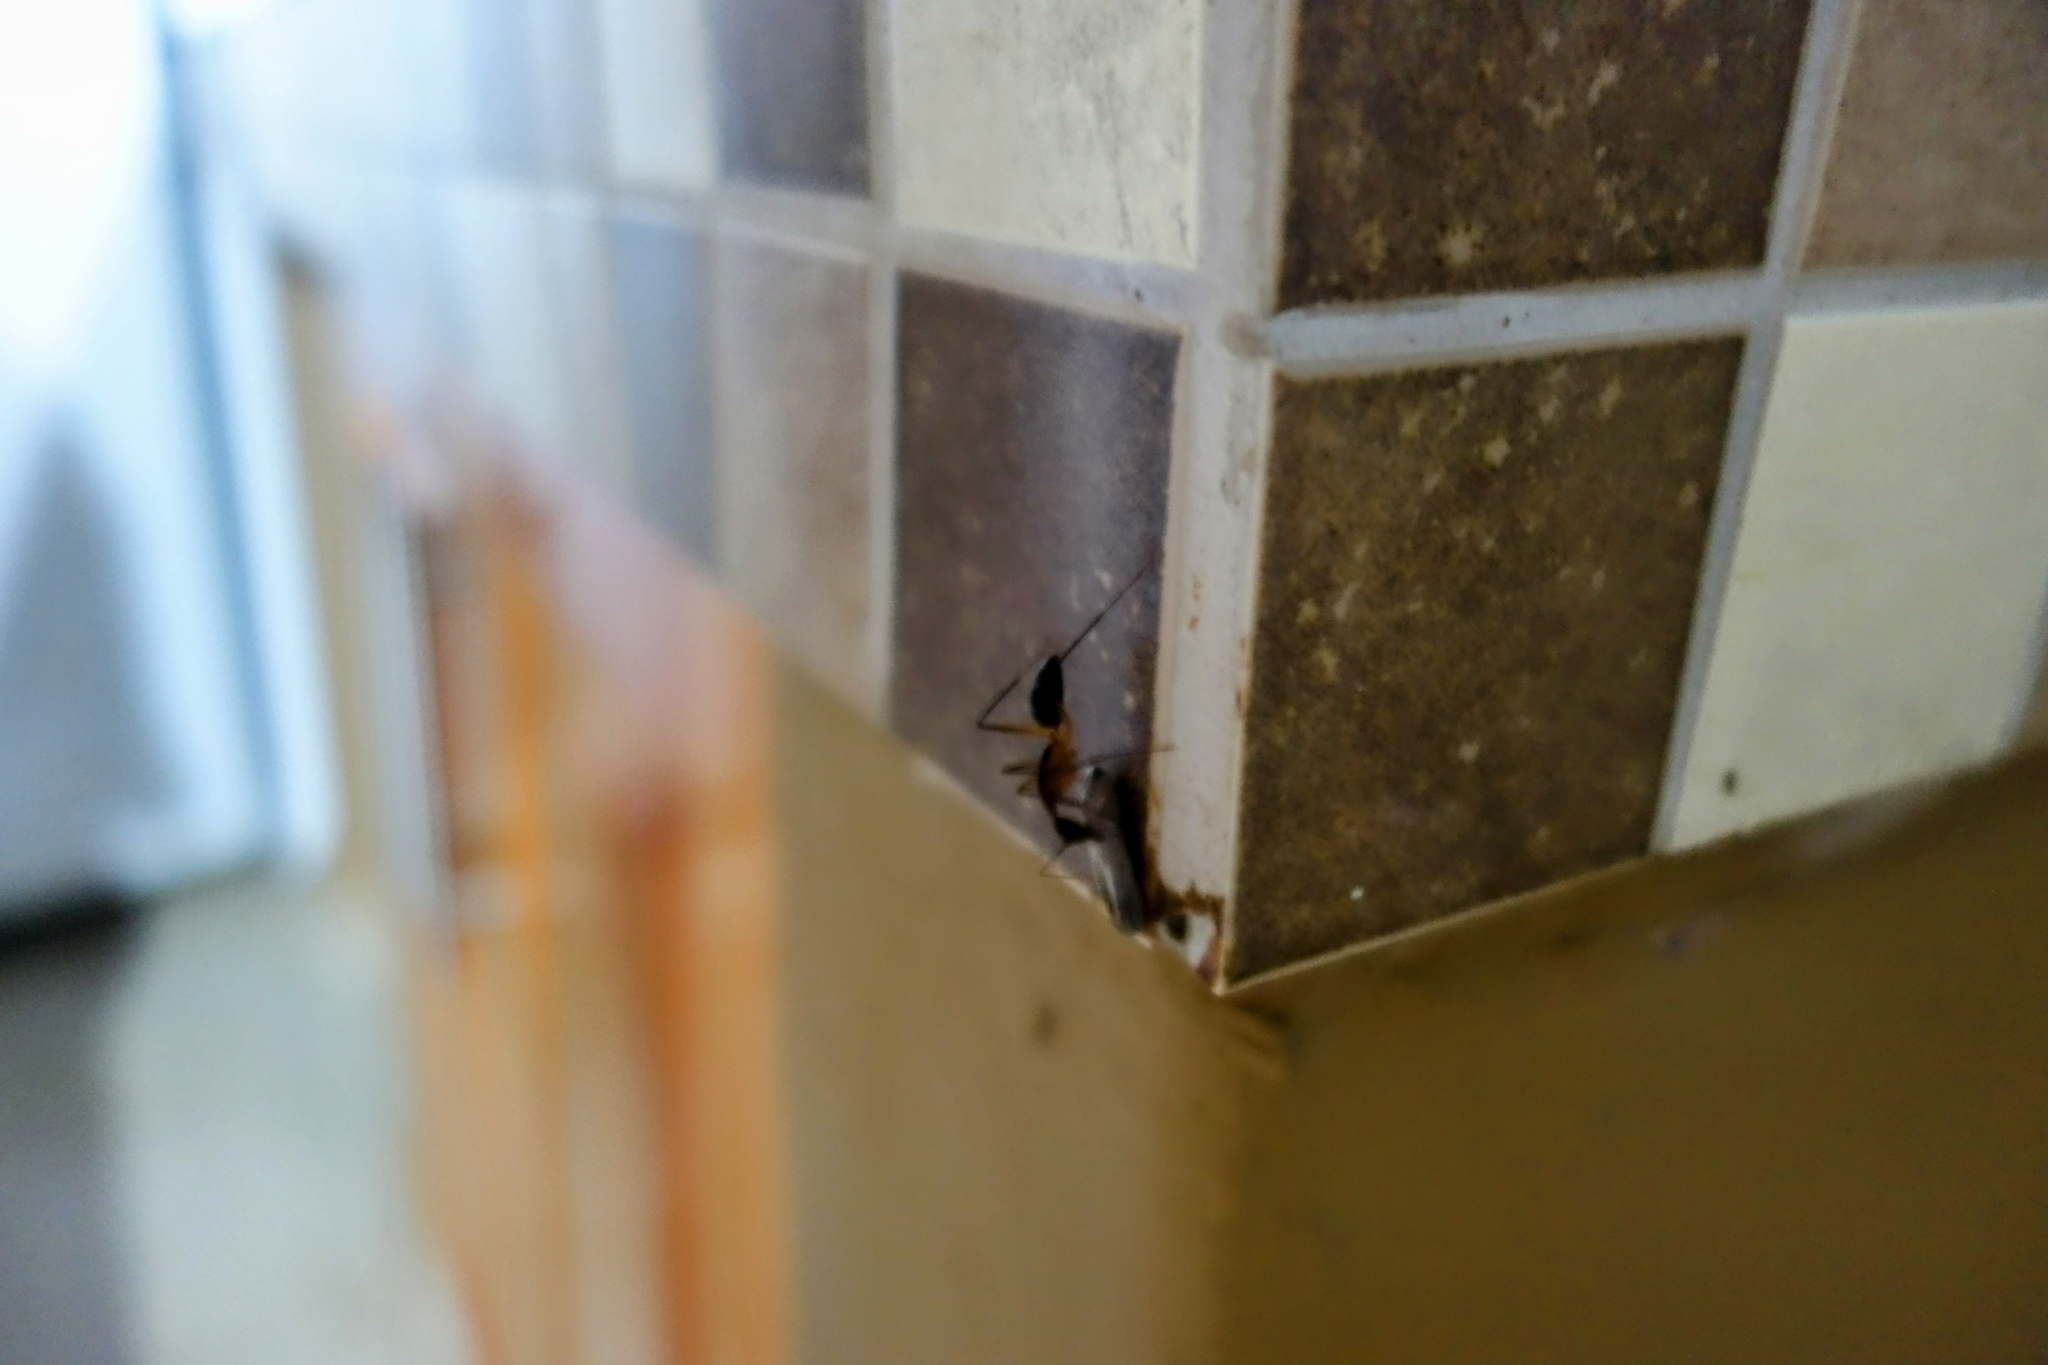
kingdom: Animalia
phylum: Arthropoda
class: Insecta
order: Hymenoptera
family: Formicidae
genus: Camponotus
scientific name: Camponotus etiolipes
